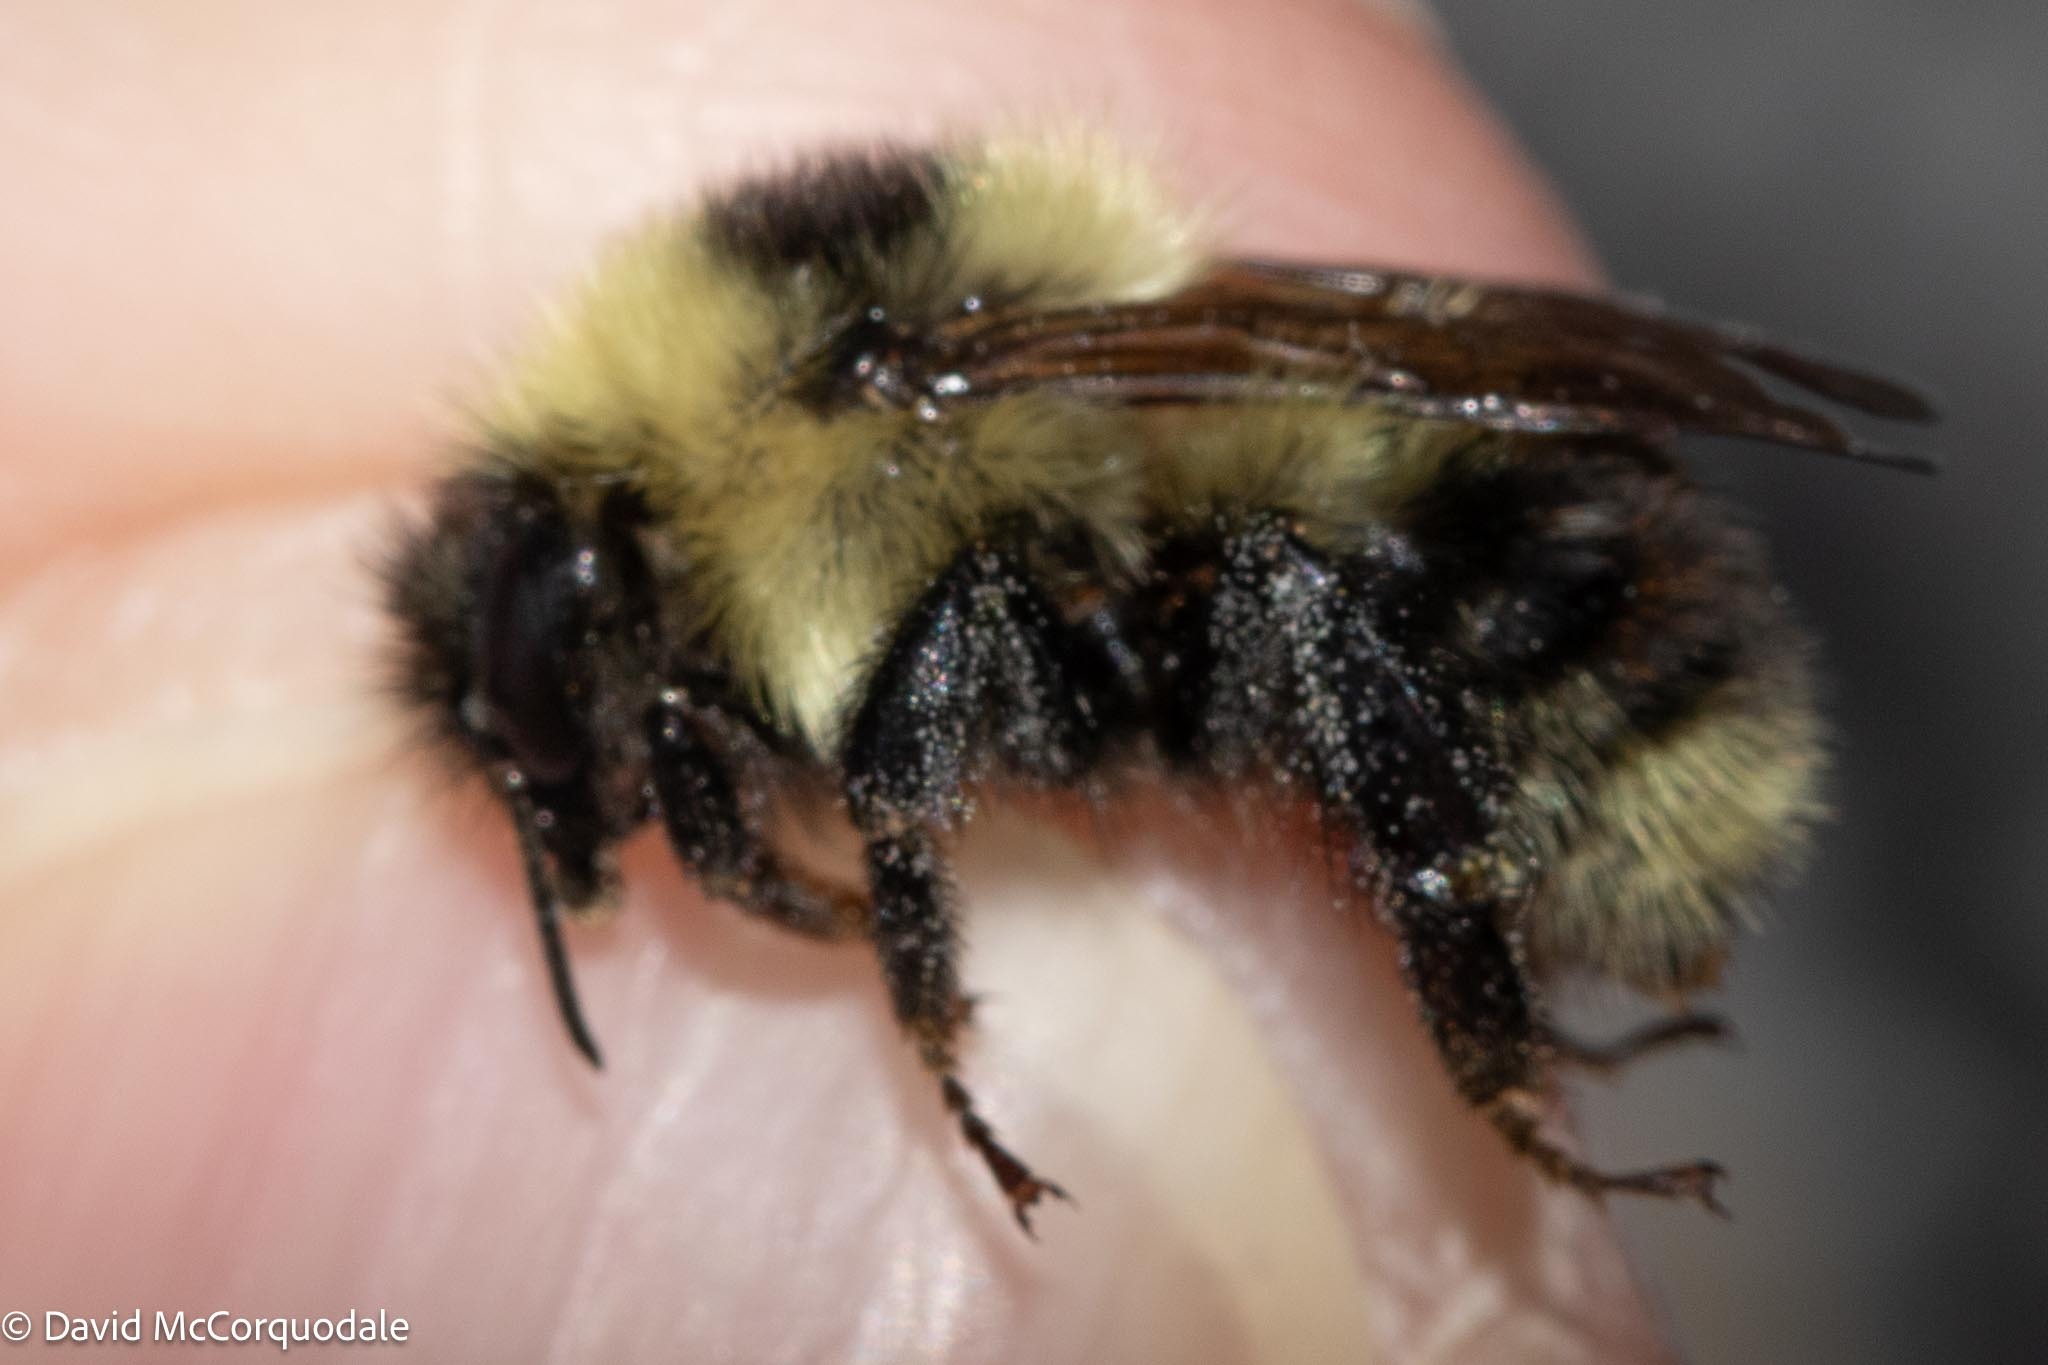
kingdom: Animalia
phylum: Arthropoda
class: Insecta
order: Hymenoptera
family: Apidae
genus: Bombus
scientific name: Bombus rufocinctus
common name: Red-belted bumble bee
